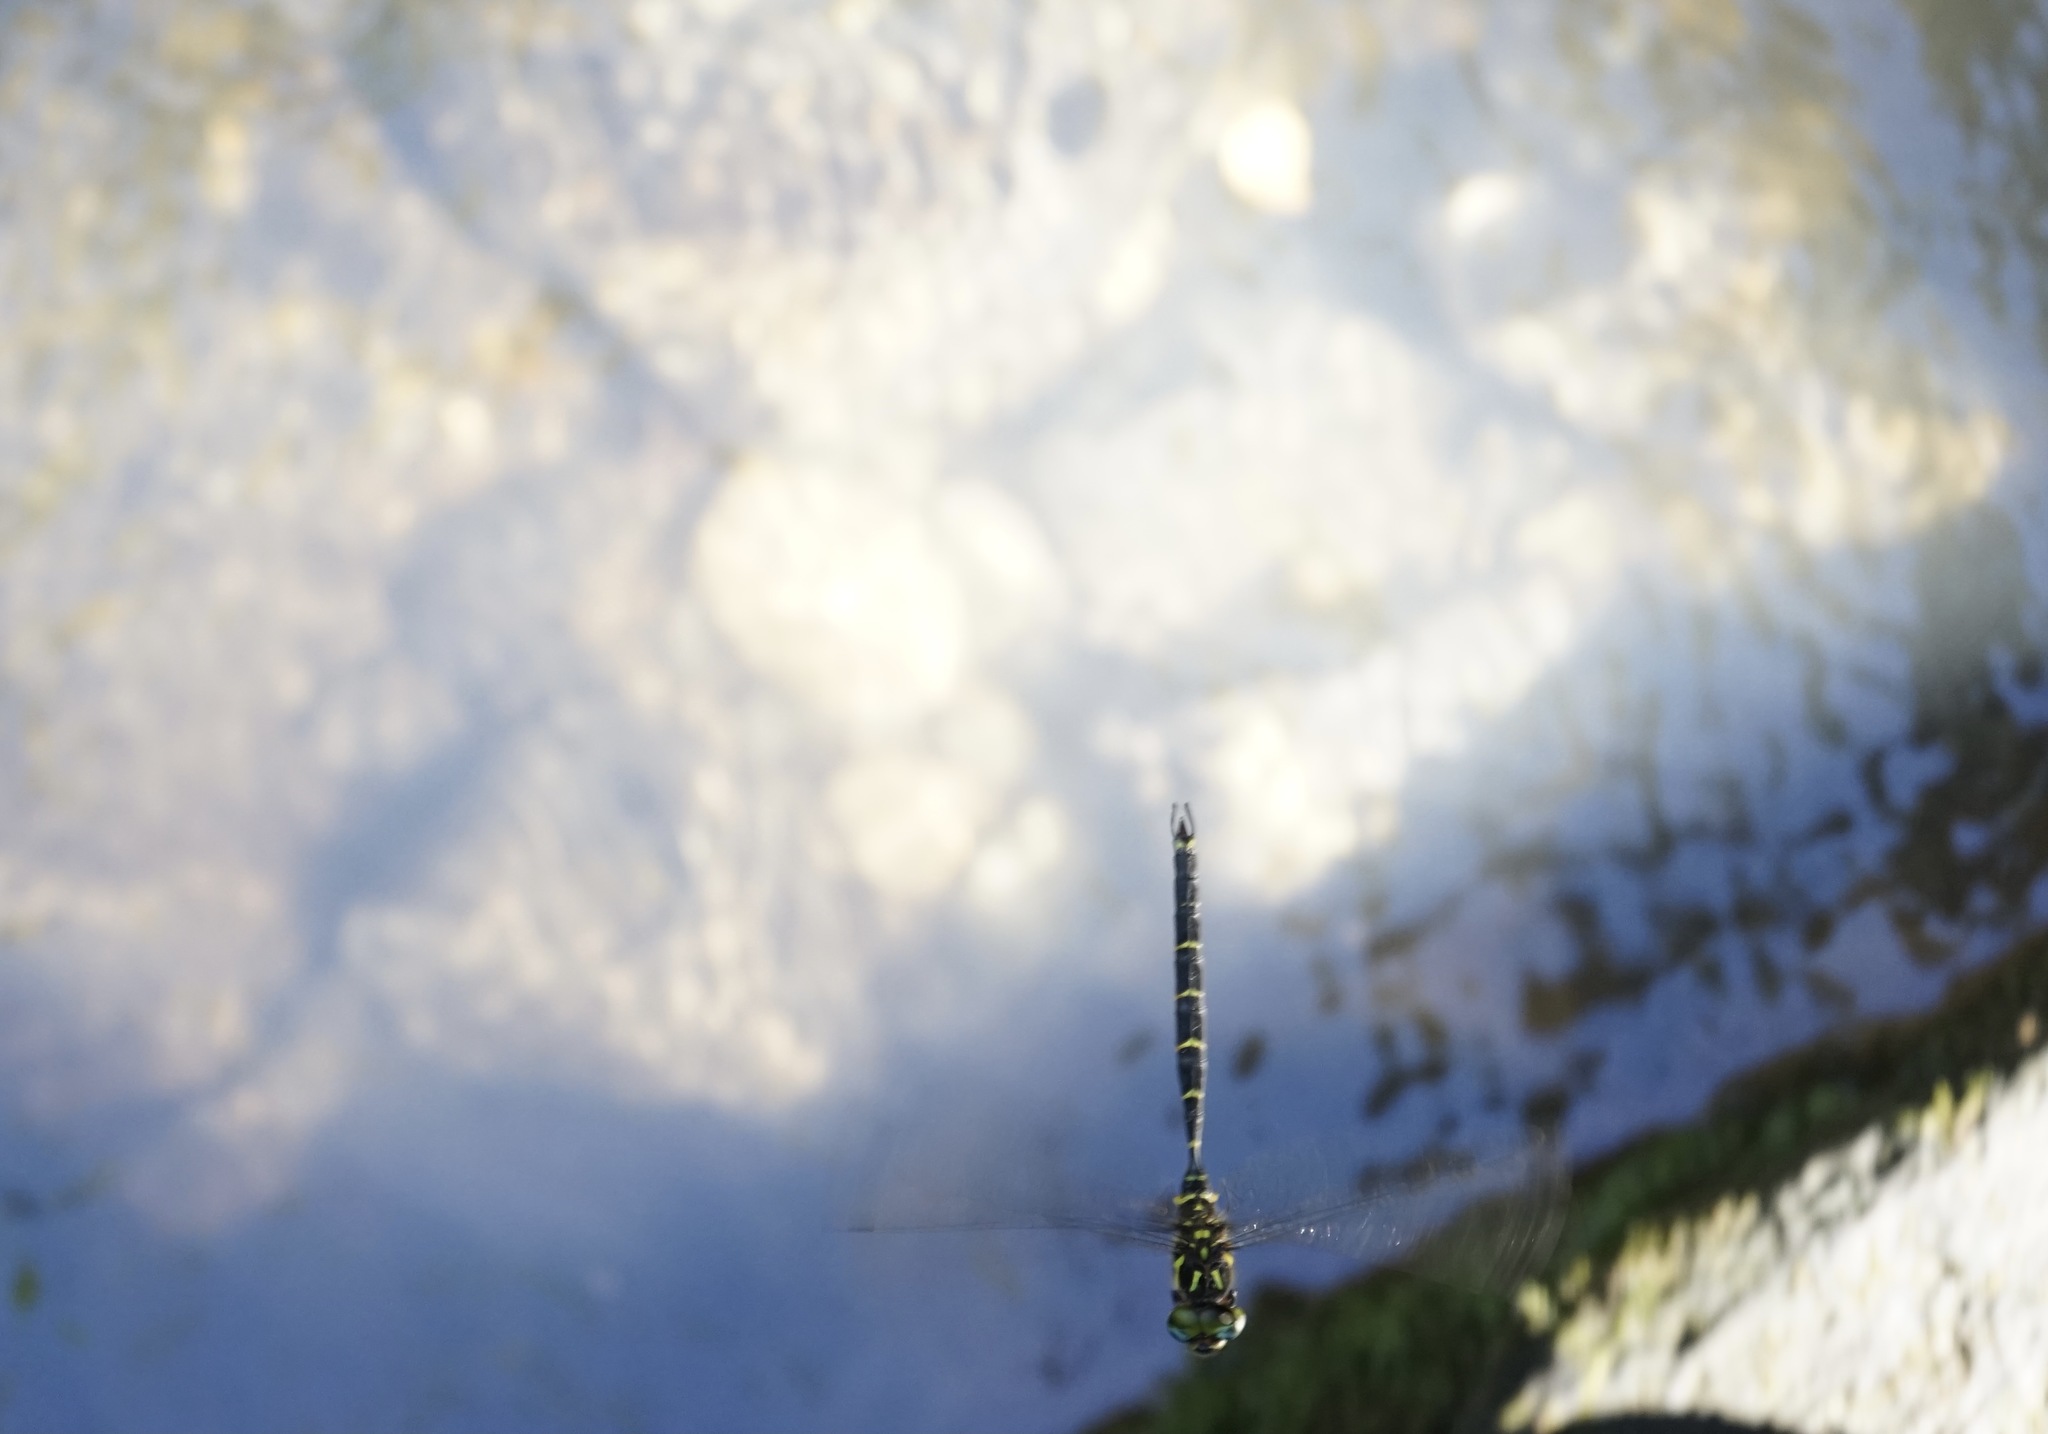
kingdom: Animalia
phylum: Arthropoda
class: Insecta
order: Odonata
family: Aeshnidae
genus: Aeschnophlebia
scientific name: Aeschnophlebia
